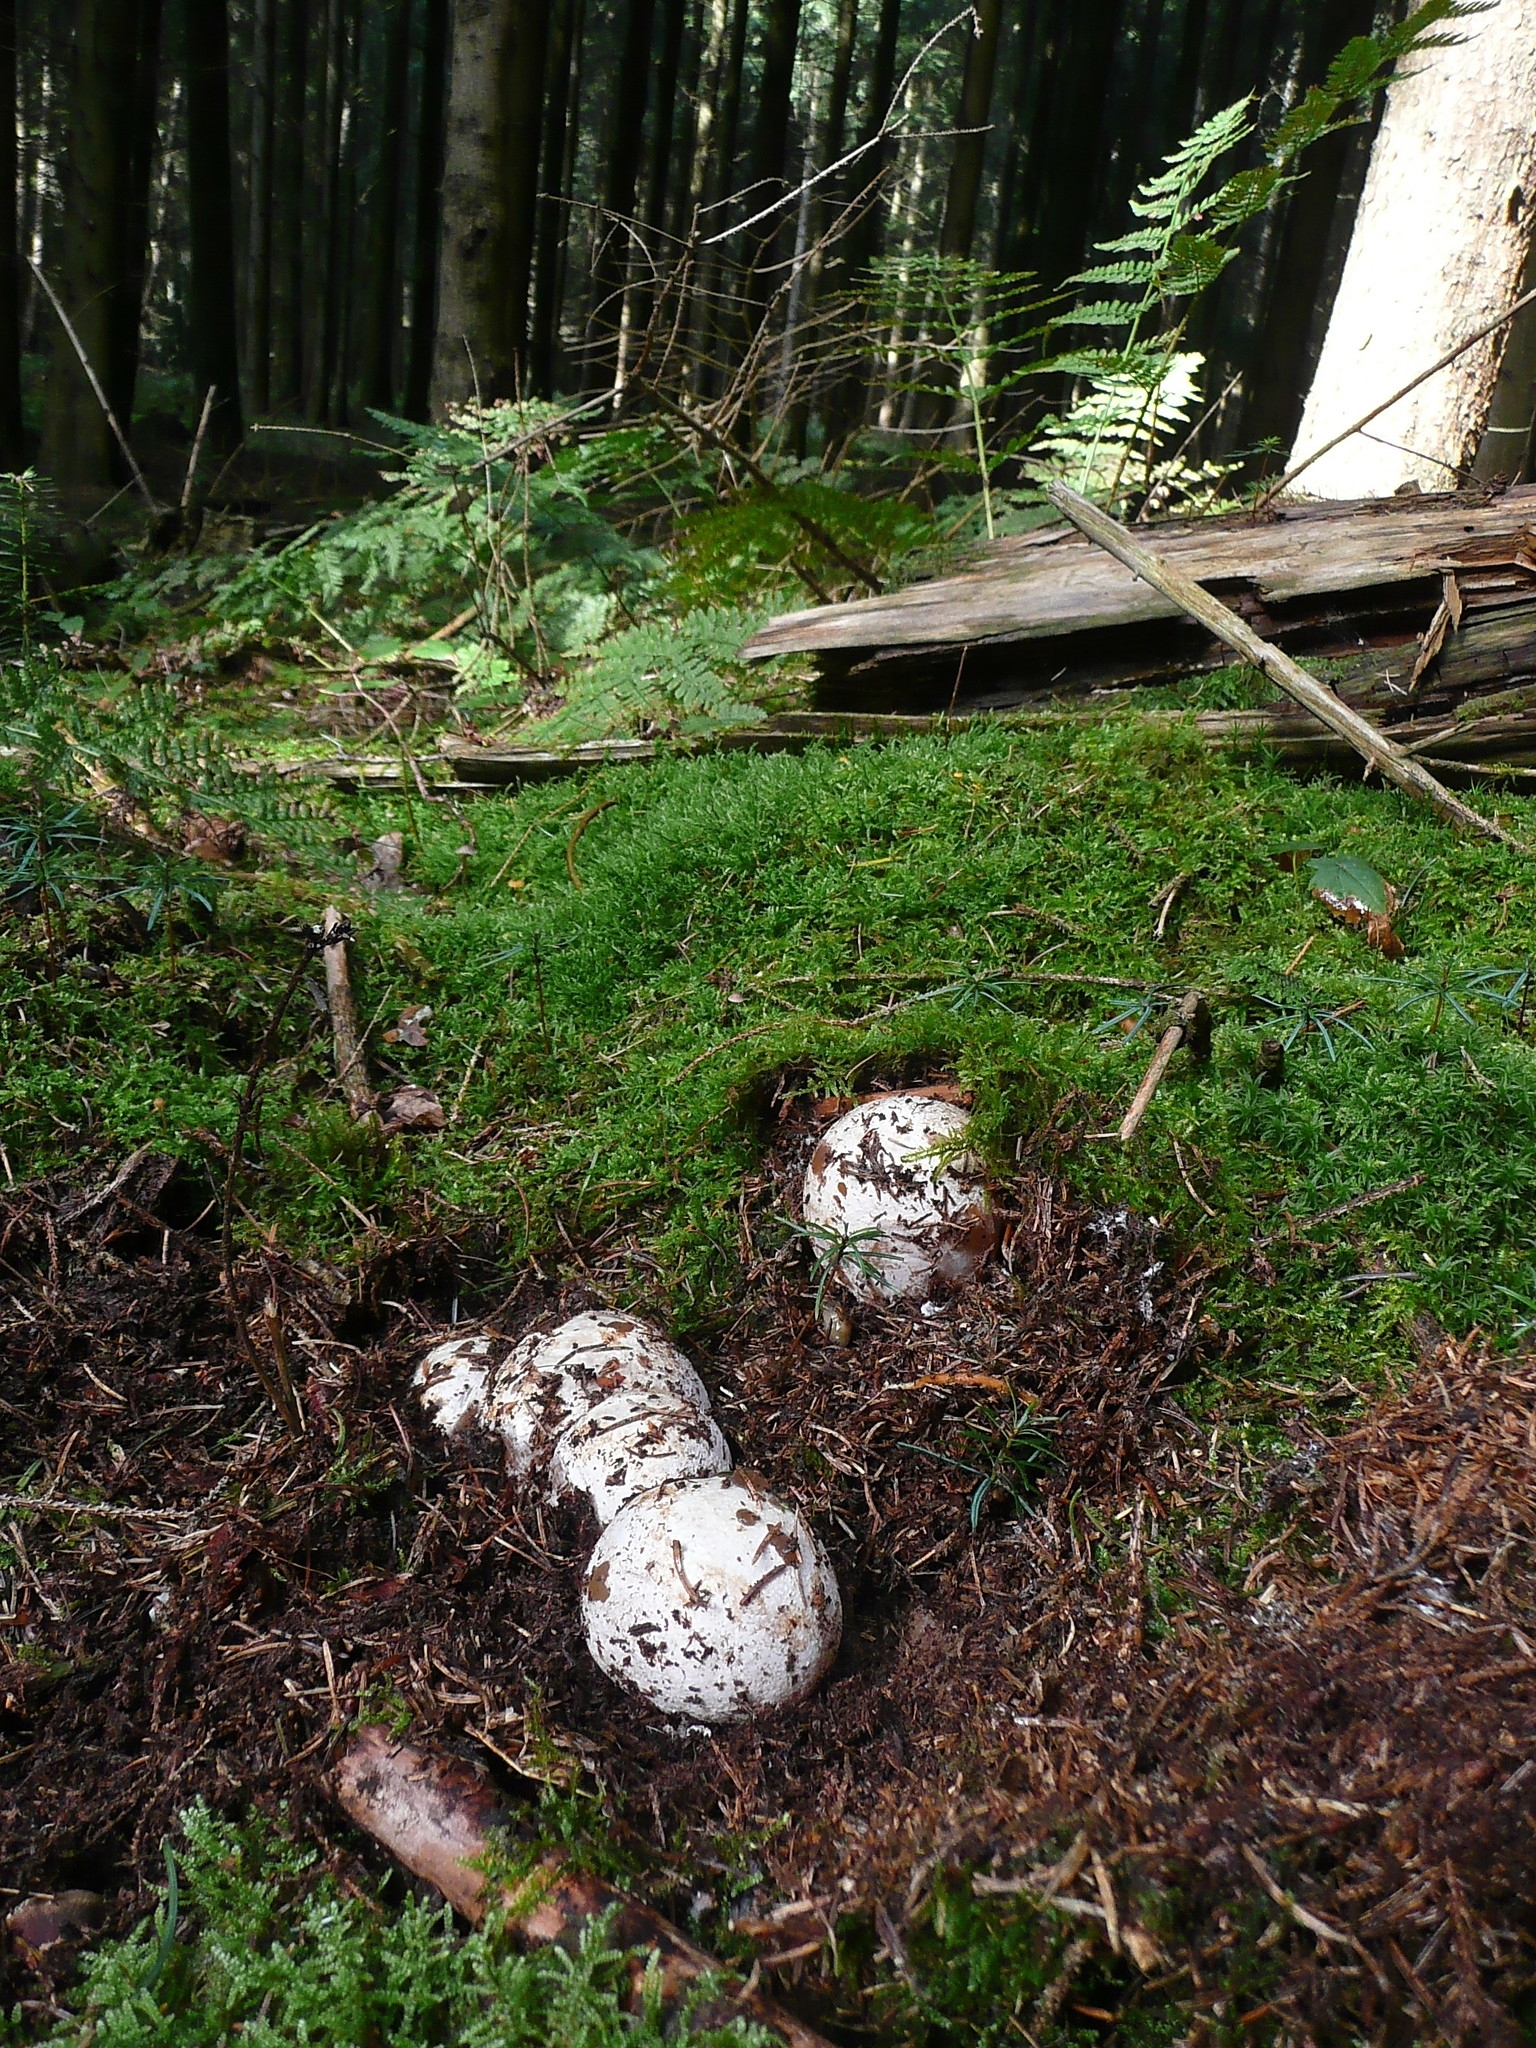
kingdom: Fungi
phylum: Basidiomycota
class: Agaricomycetes
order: Phallales
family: Phallaceae
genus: Phallus
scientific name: Phallus impudicus
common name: Common stinkhorn
